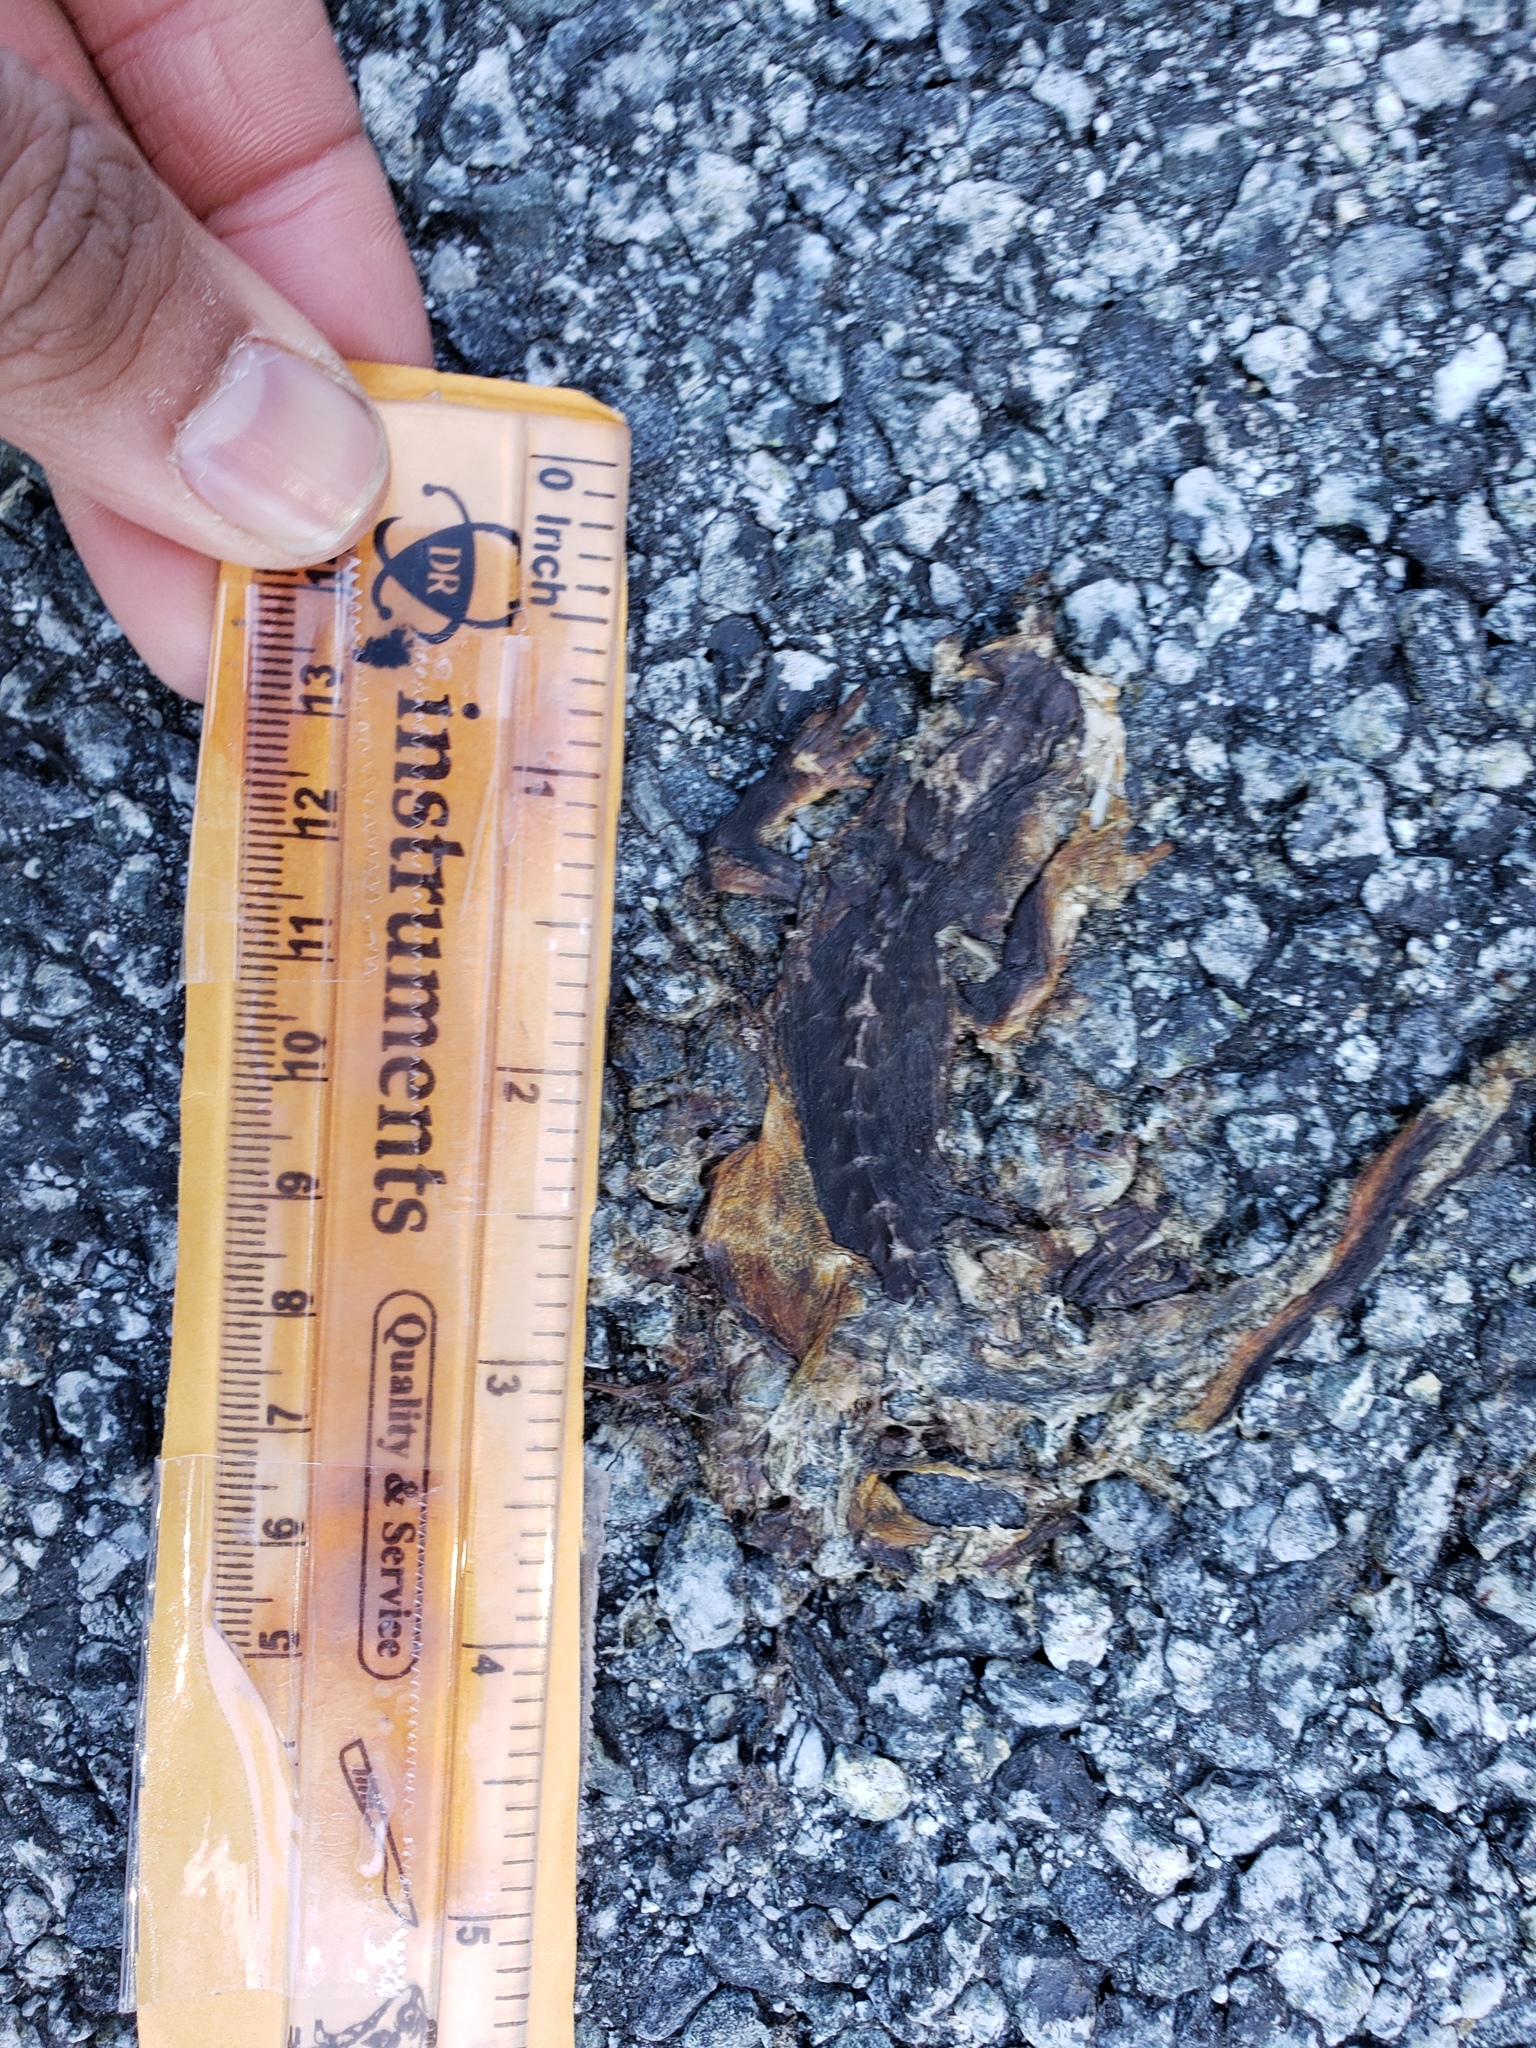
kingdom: Animalia
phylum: Chordata
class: Amphibia
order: Caudata
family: Salamandridae
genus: Taricha
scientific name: Taricha
